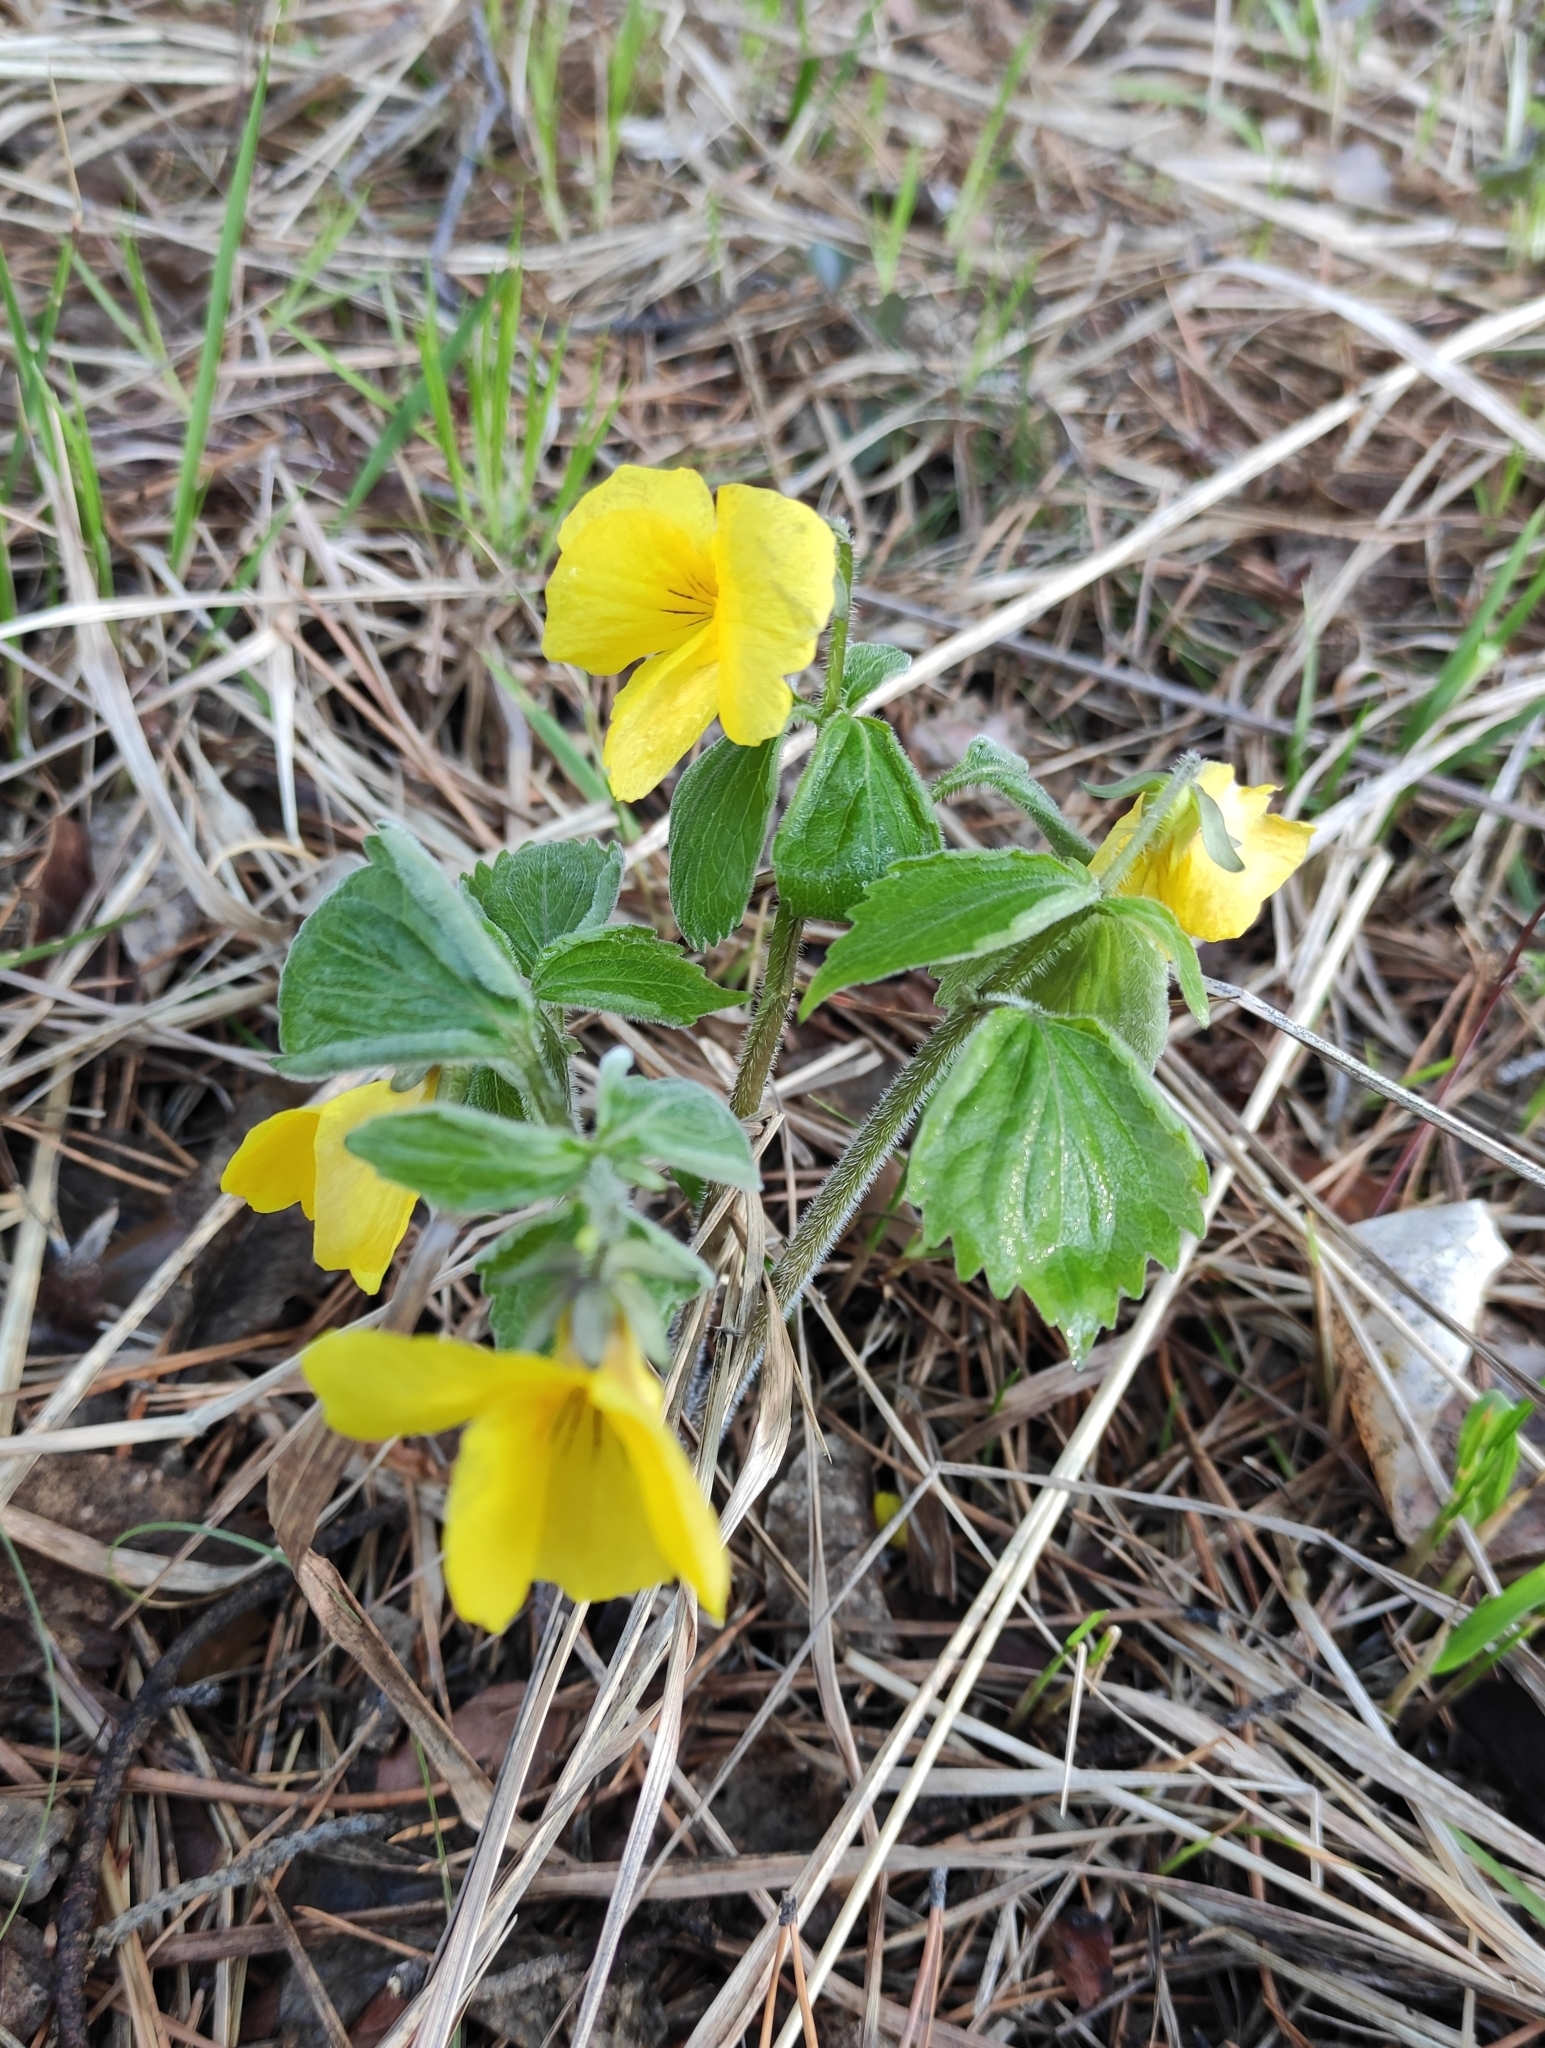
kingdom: Plantae
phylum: Tracheophyta
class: Magnoliopsida
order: Malpighiales
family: Violaceae
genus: Viola
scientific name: Viola uniflora
